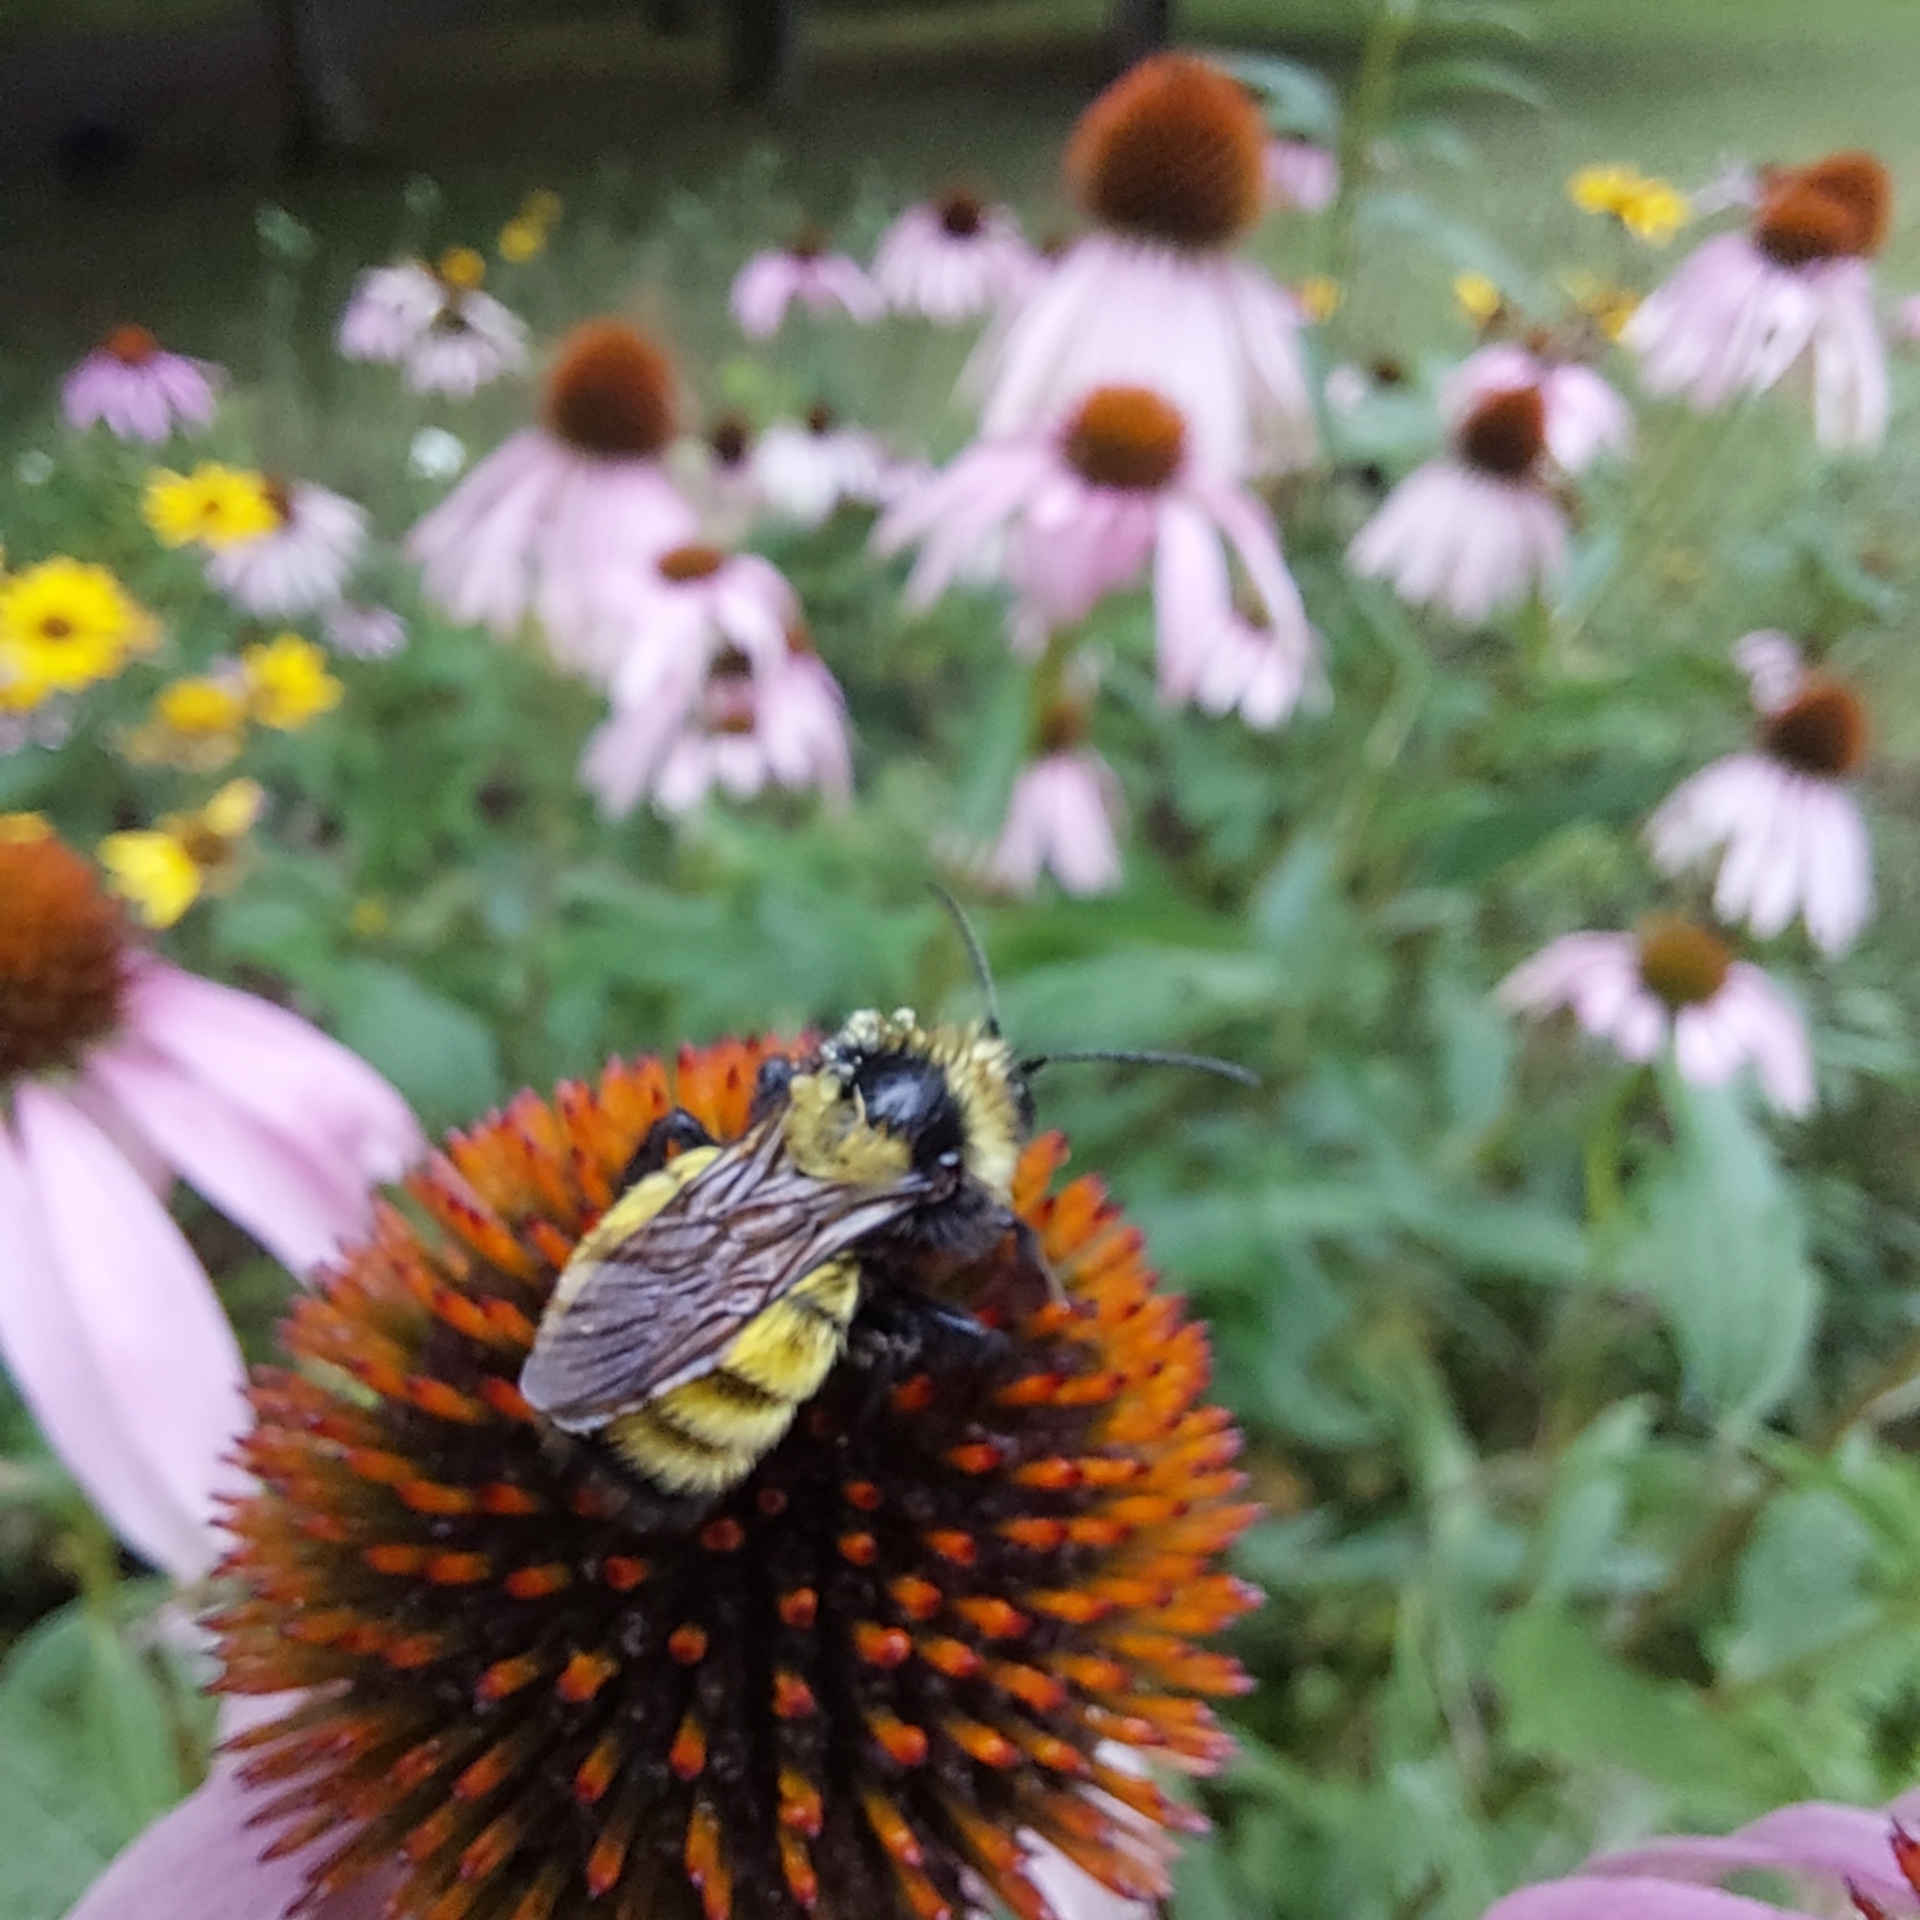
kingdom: Animalia
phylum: Arthropoda
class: Insecta
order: Hymenoptera
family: Apidae
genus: Bombus
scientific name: Bombus borealis
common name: Northern amber bumble bee
